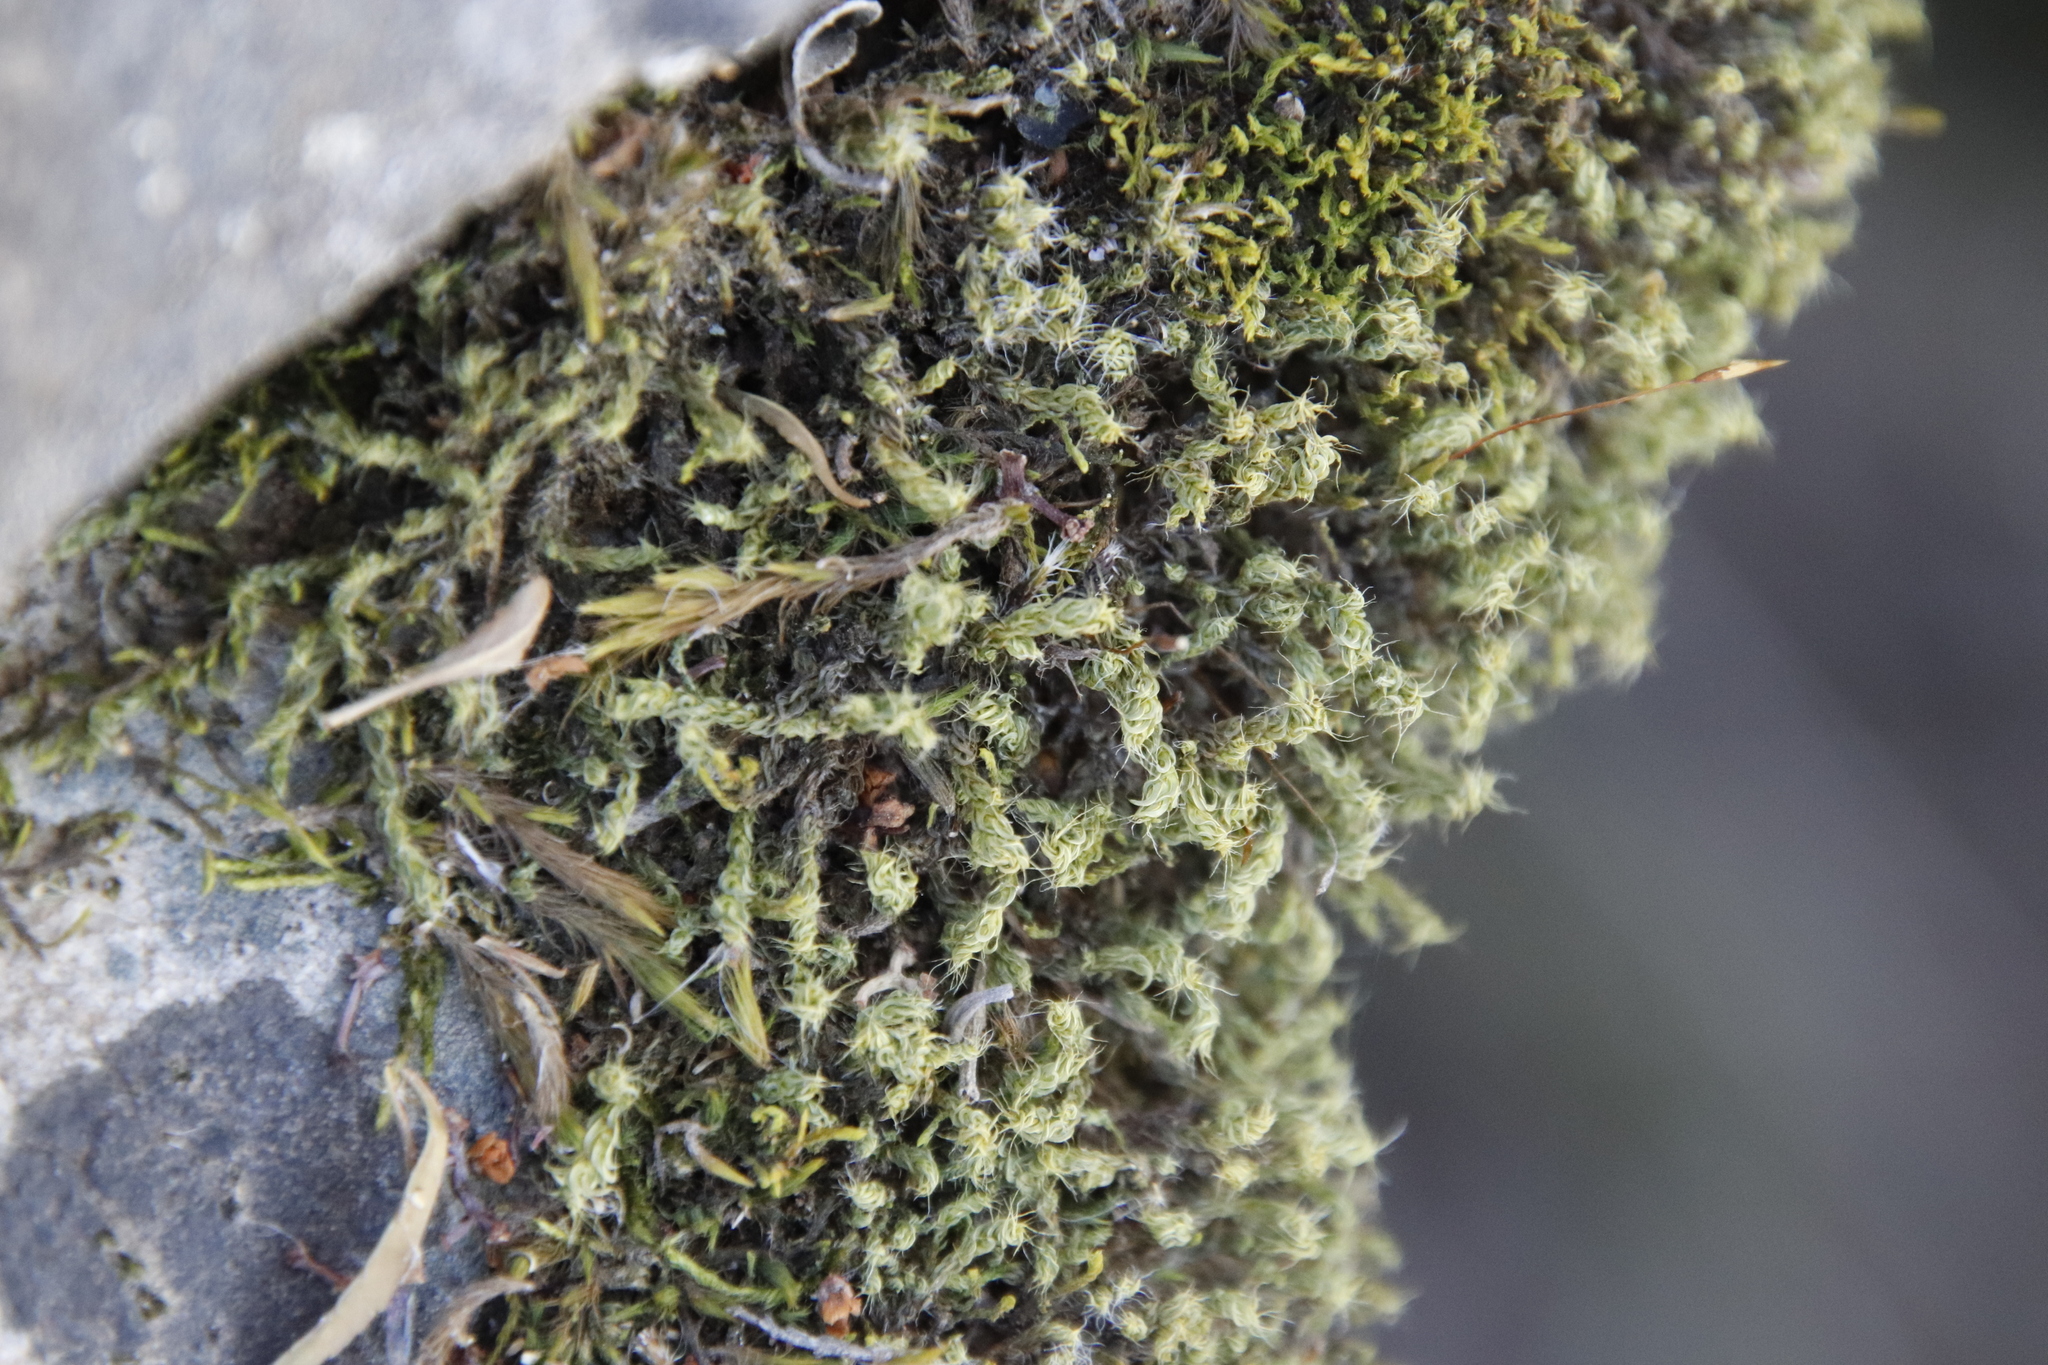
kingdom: Plantae
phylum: Bryophyta
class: Bryopsida
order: Pottiales
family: Pottiaceae
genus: Pseudocrossidium
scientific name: Pseudocrossidium crinitum
